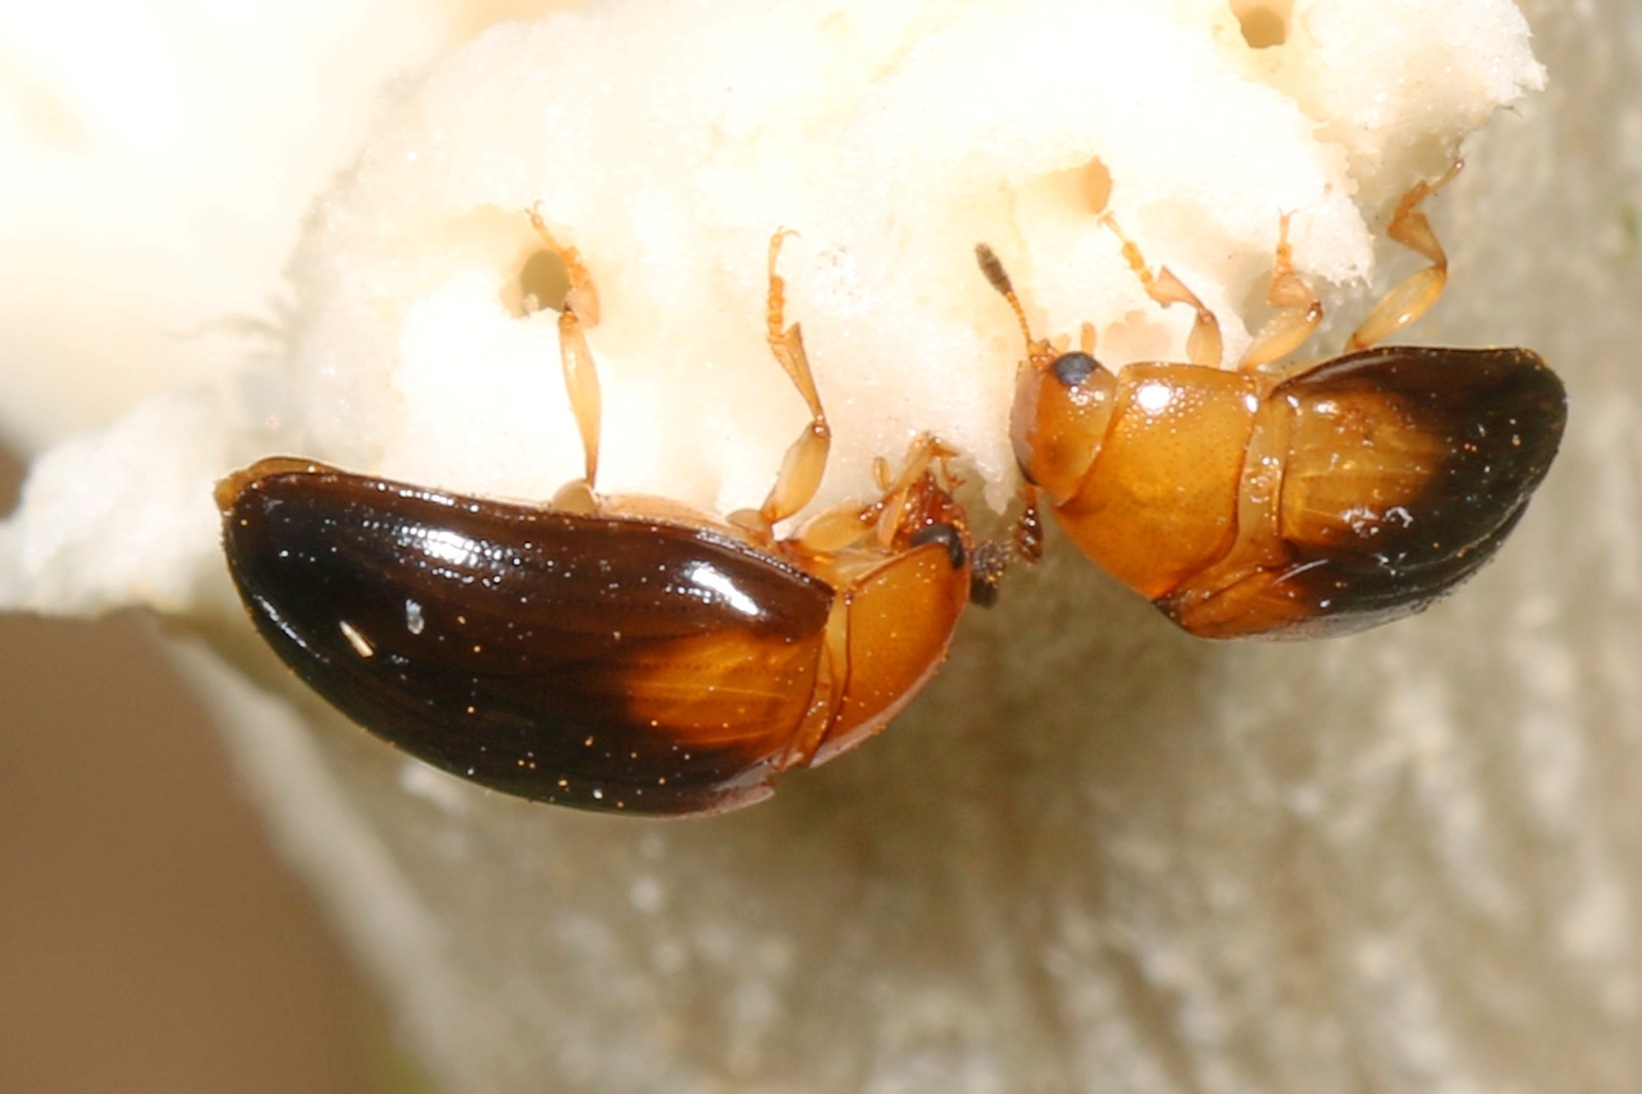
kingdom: Animalia
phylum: Arthropoda
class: Insecta
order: Coleoptera
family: Erotylidae
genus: Tritoma
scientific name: Tritoma biguttata
